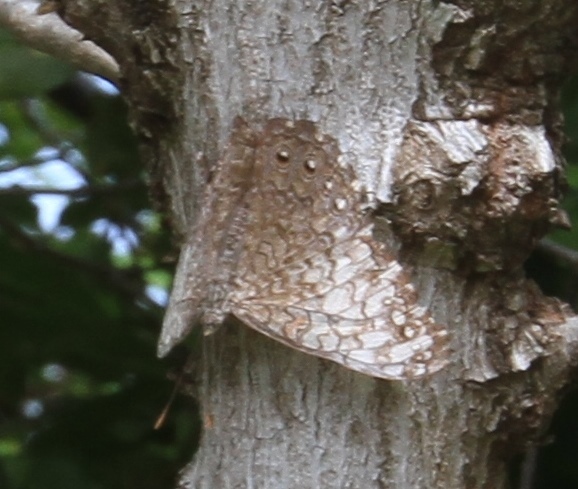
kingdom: Animalia
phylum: Arthropoda
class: Insecta
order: Lepidoptera
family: Nymphalidae
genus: Hamadryas
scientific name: Hamadryas februa
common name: Gray cracker
